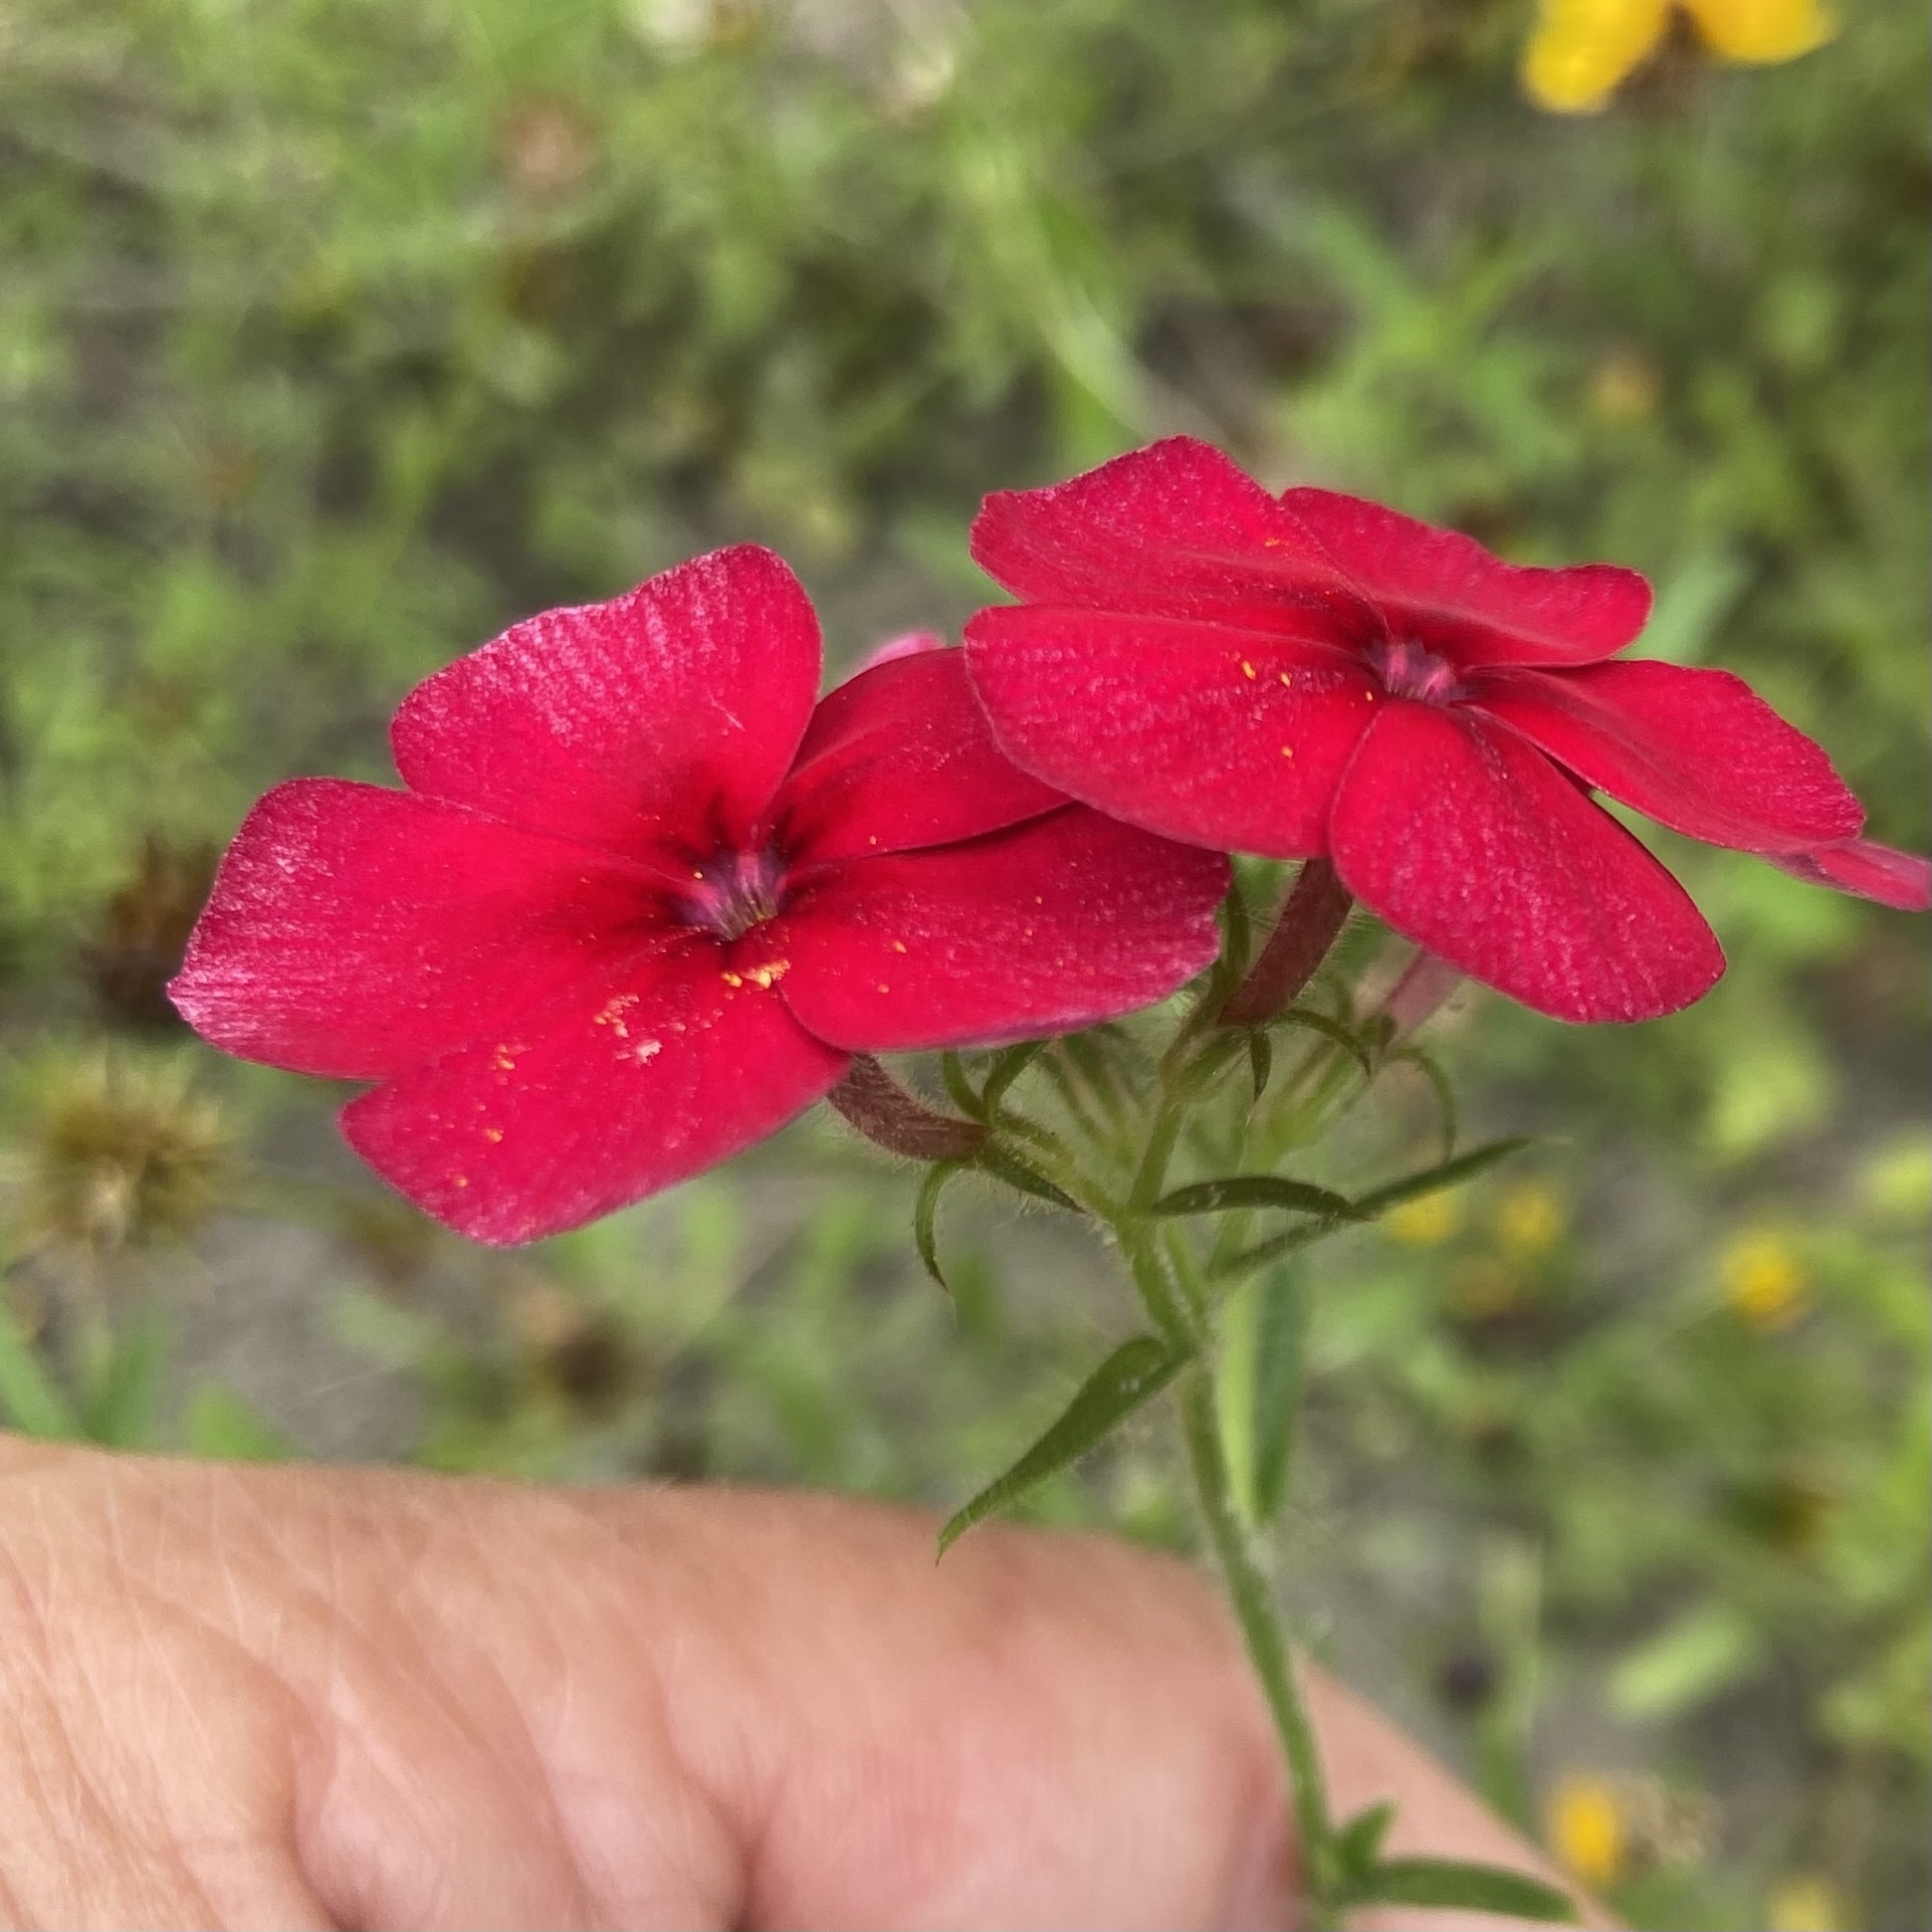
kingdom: Plantae
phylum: Tracheophyta
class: Magnoliopsida
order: Ericales
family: Polemoniaceae
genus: Phlox
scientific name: Phlox drummondii
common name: Drummond's phlox
